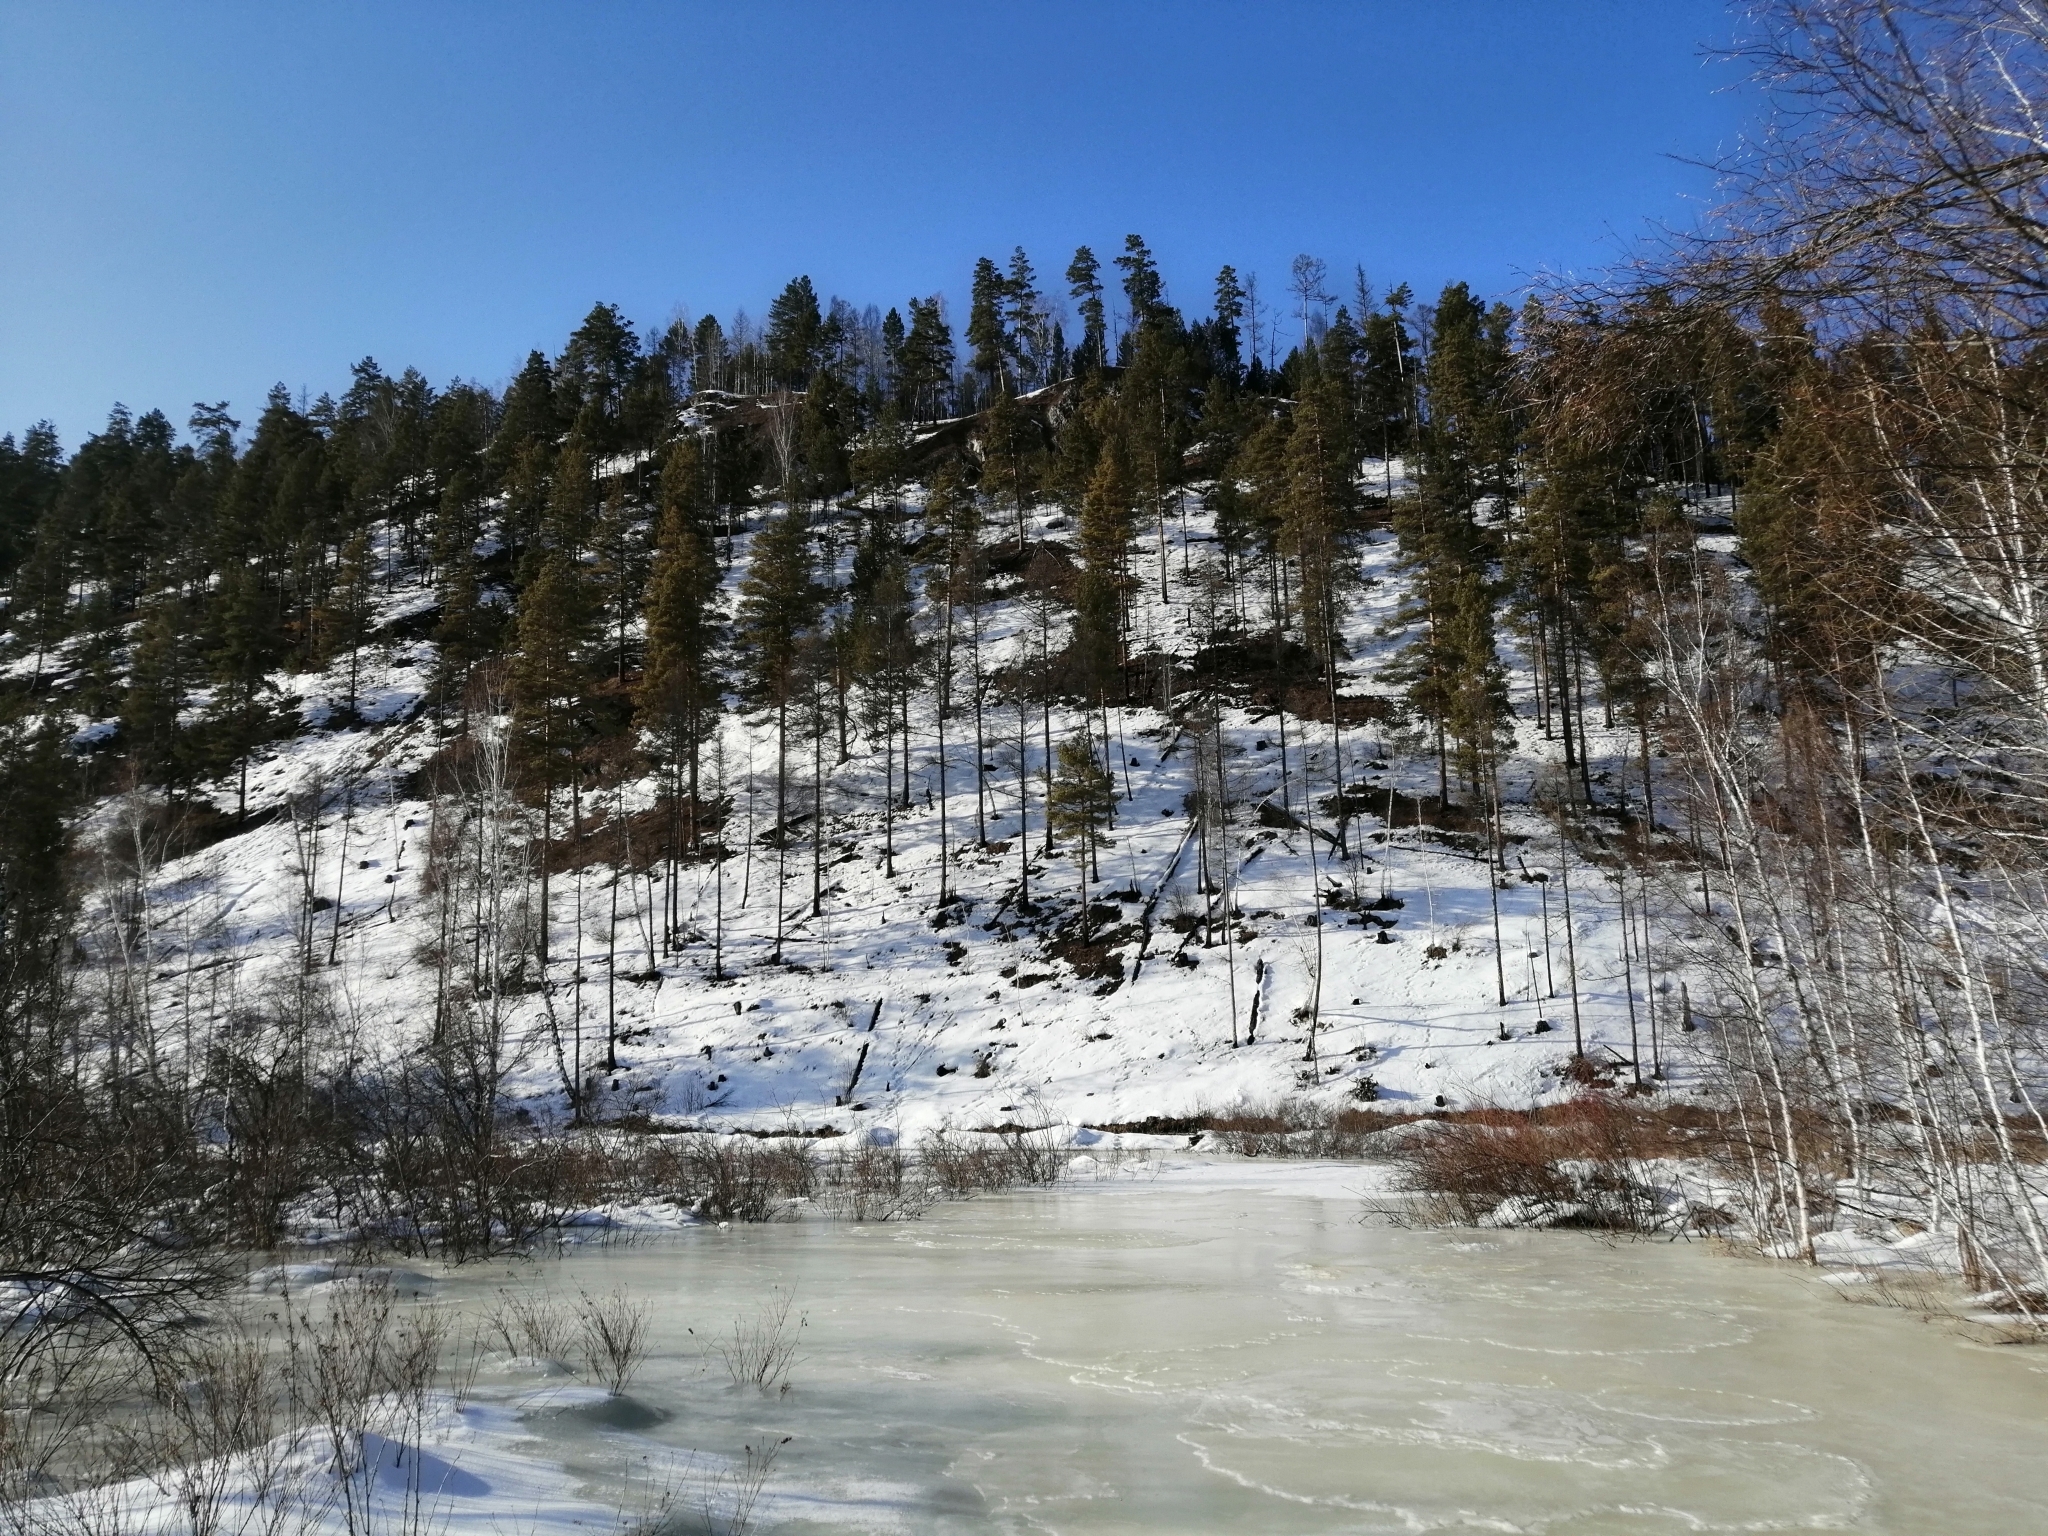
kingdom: Plantae
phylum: Tracheophyta
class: Pinopsida
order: Pinales
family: Pinaceae
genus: Pinus
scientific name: Pinus sylvestris
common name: Scots pine
